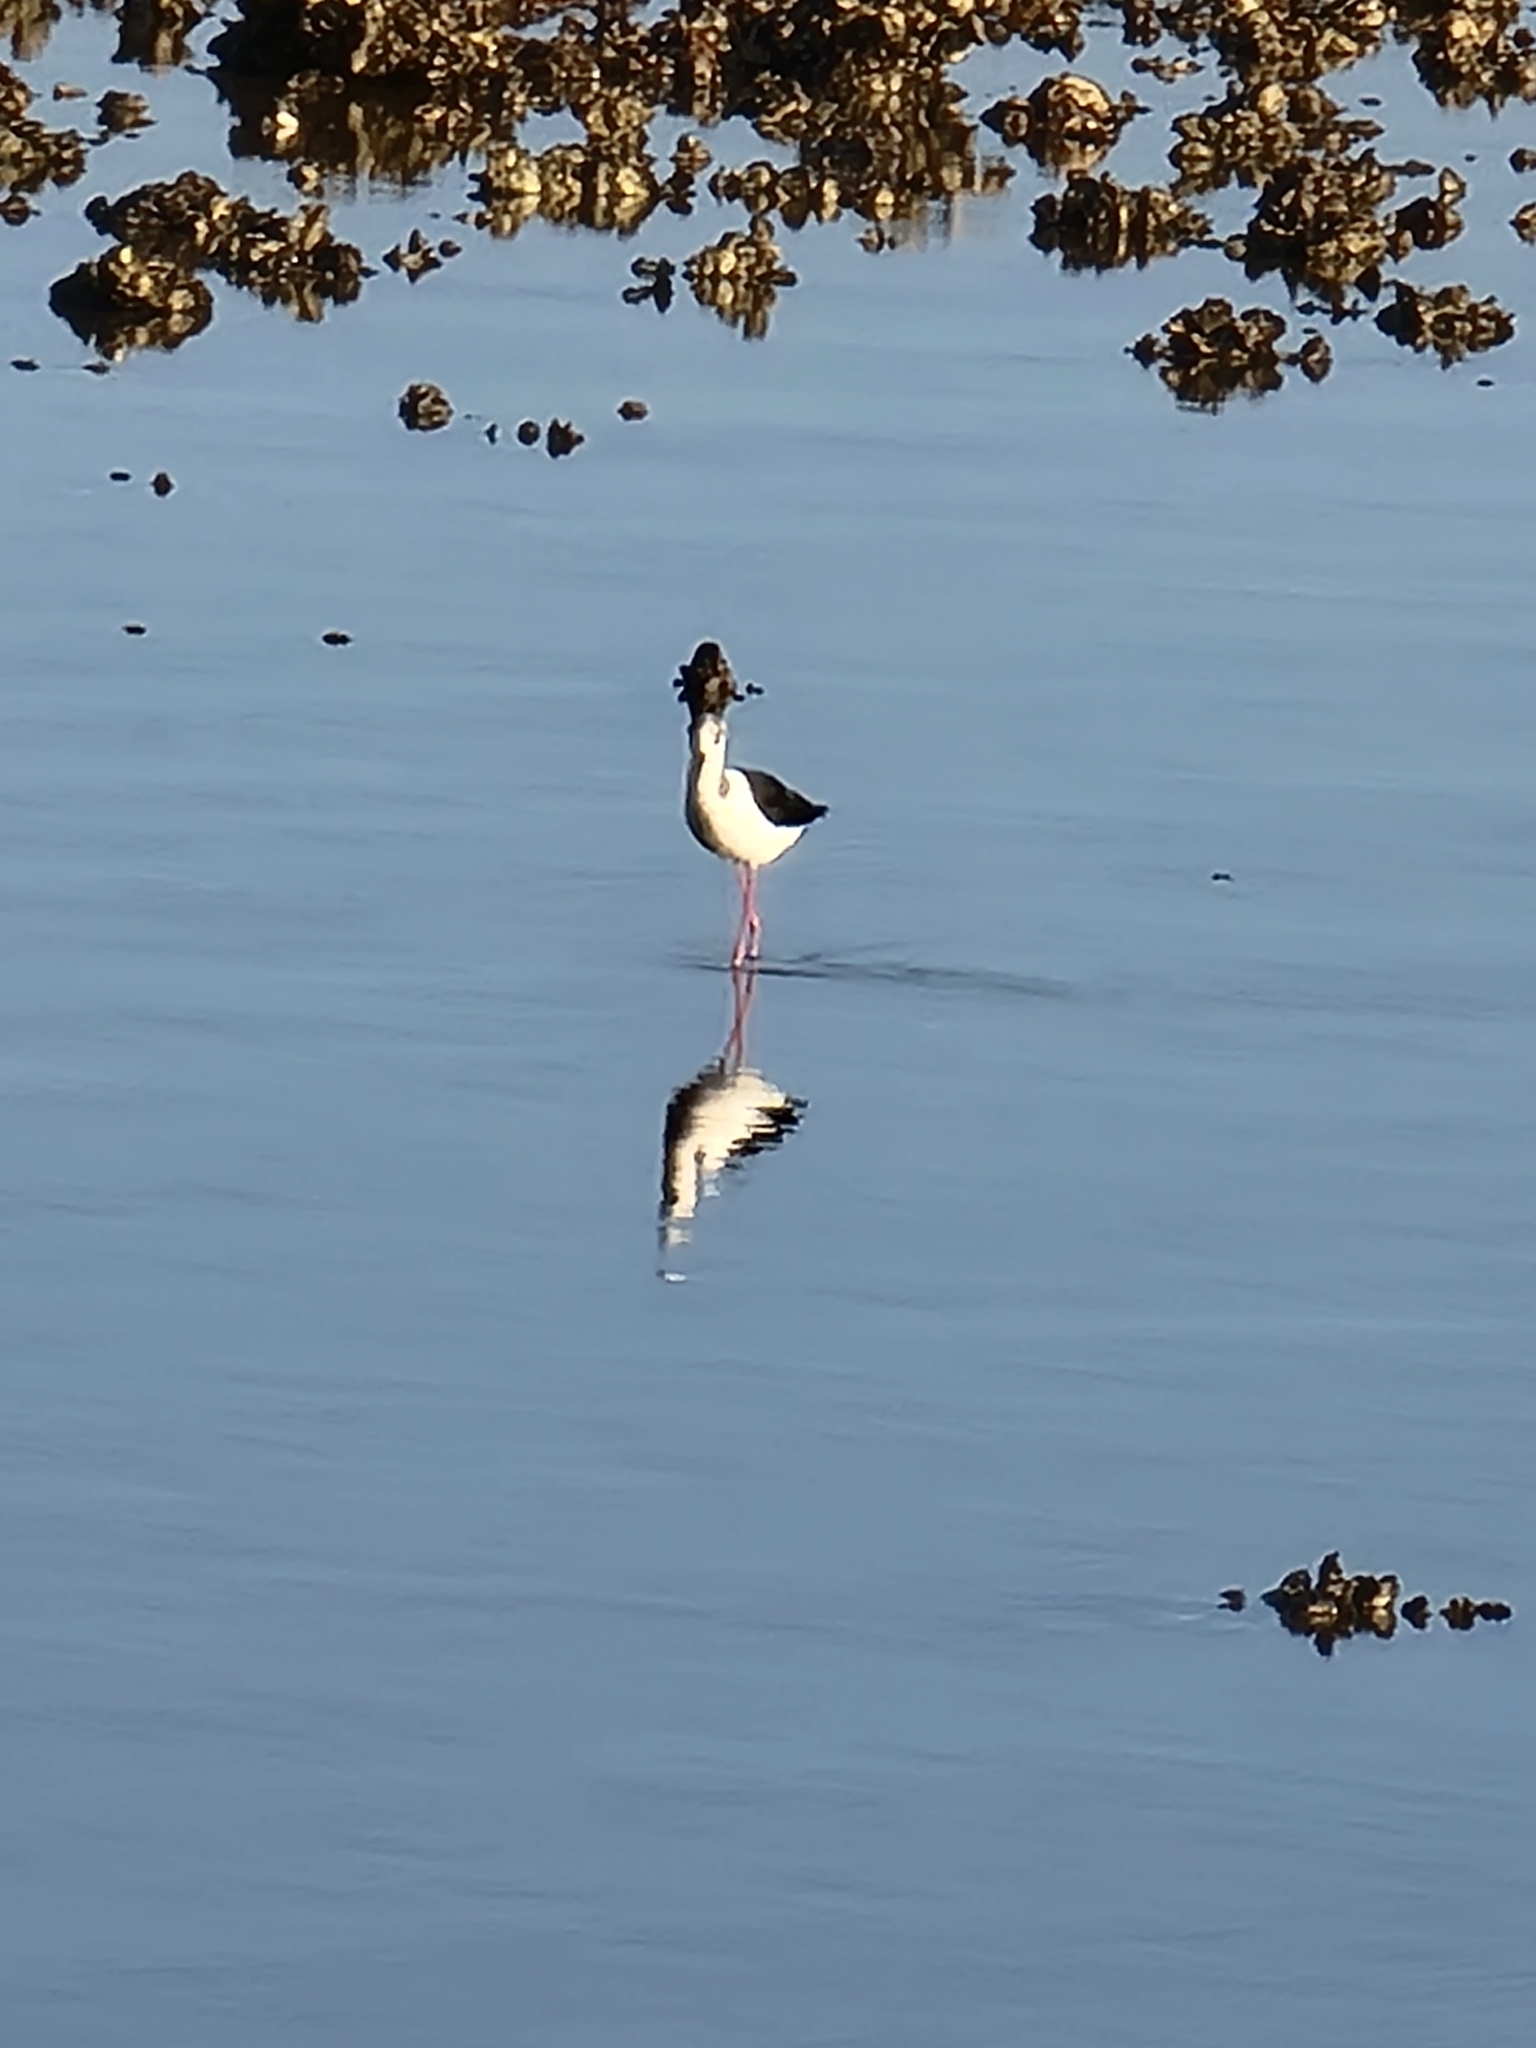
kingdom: Animalia
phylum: Chordata
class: Aves
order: Charadriiformes
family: Recurvirostridae
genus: Himantopus
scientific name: Himantopus leucocephalus
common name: White-headed stilt
